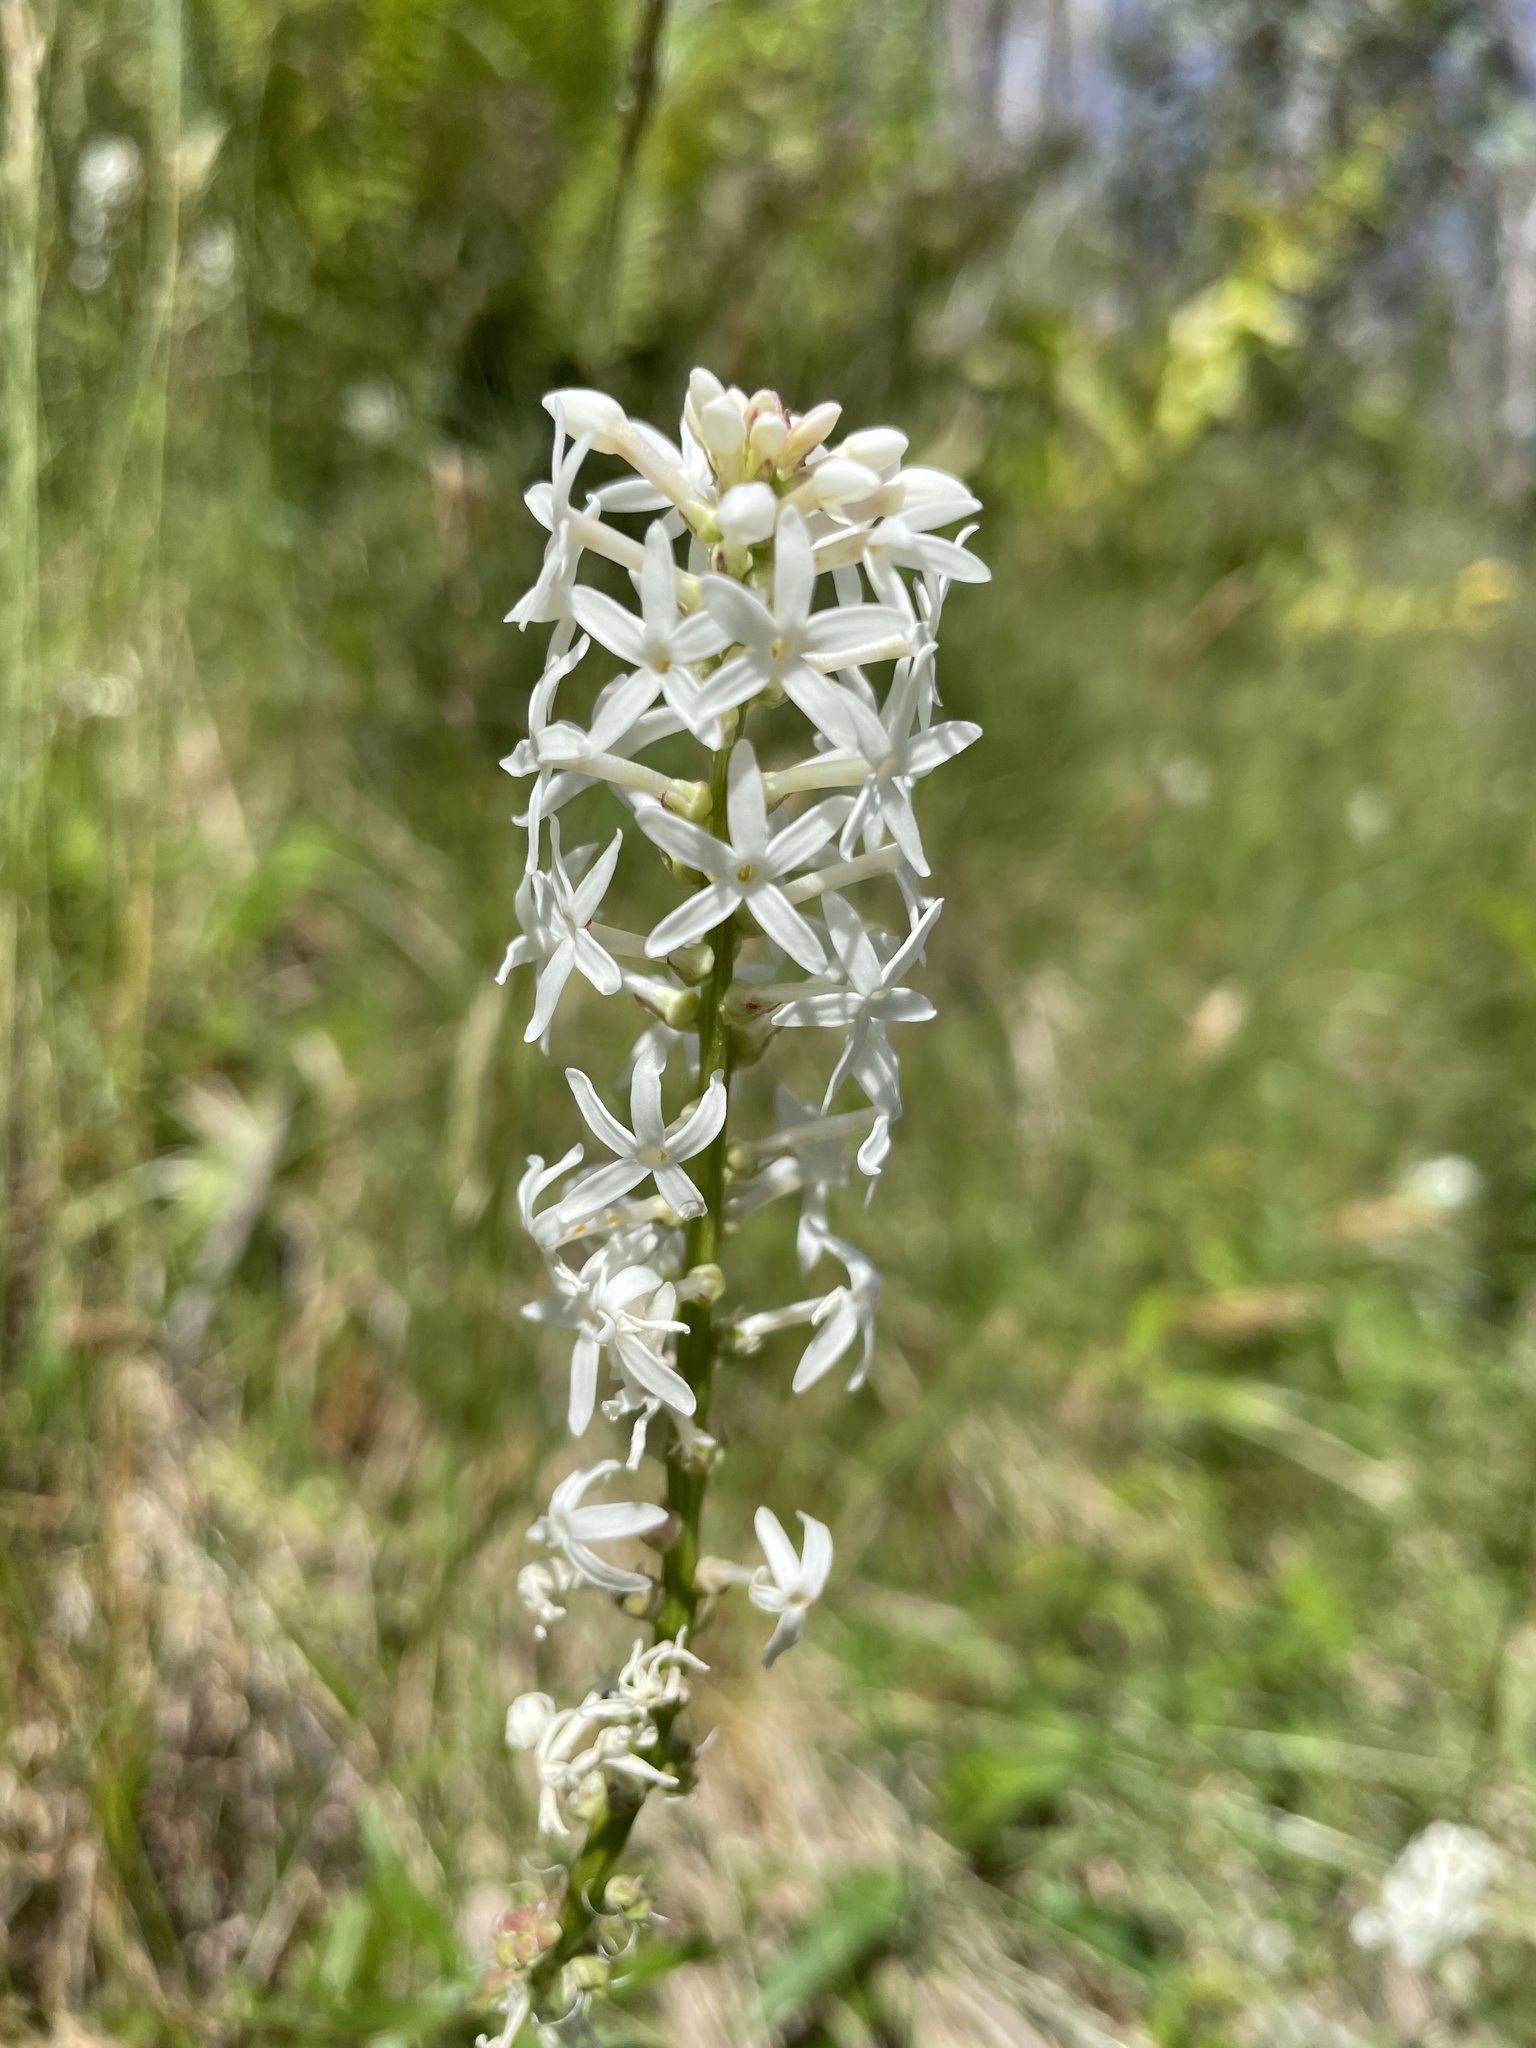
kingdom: Plantae
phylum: Tracheophyta
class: Magnoliopsida
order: Celastrales
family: Celastraceae
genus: Stackhousia
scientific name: Stackhousia monogyna
